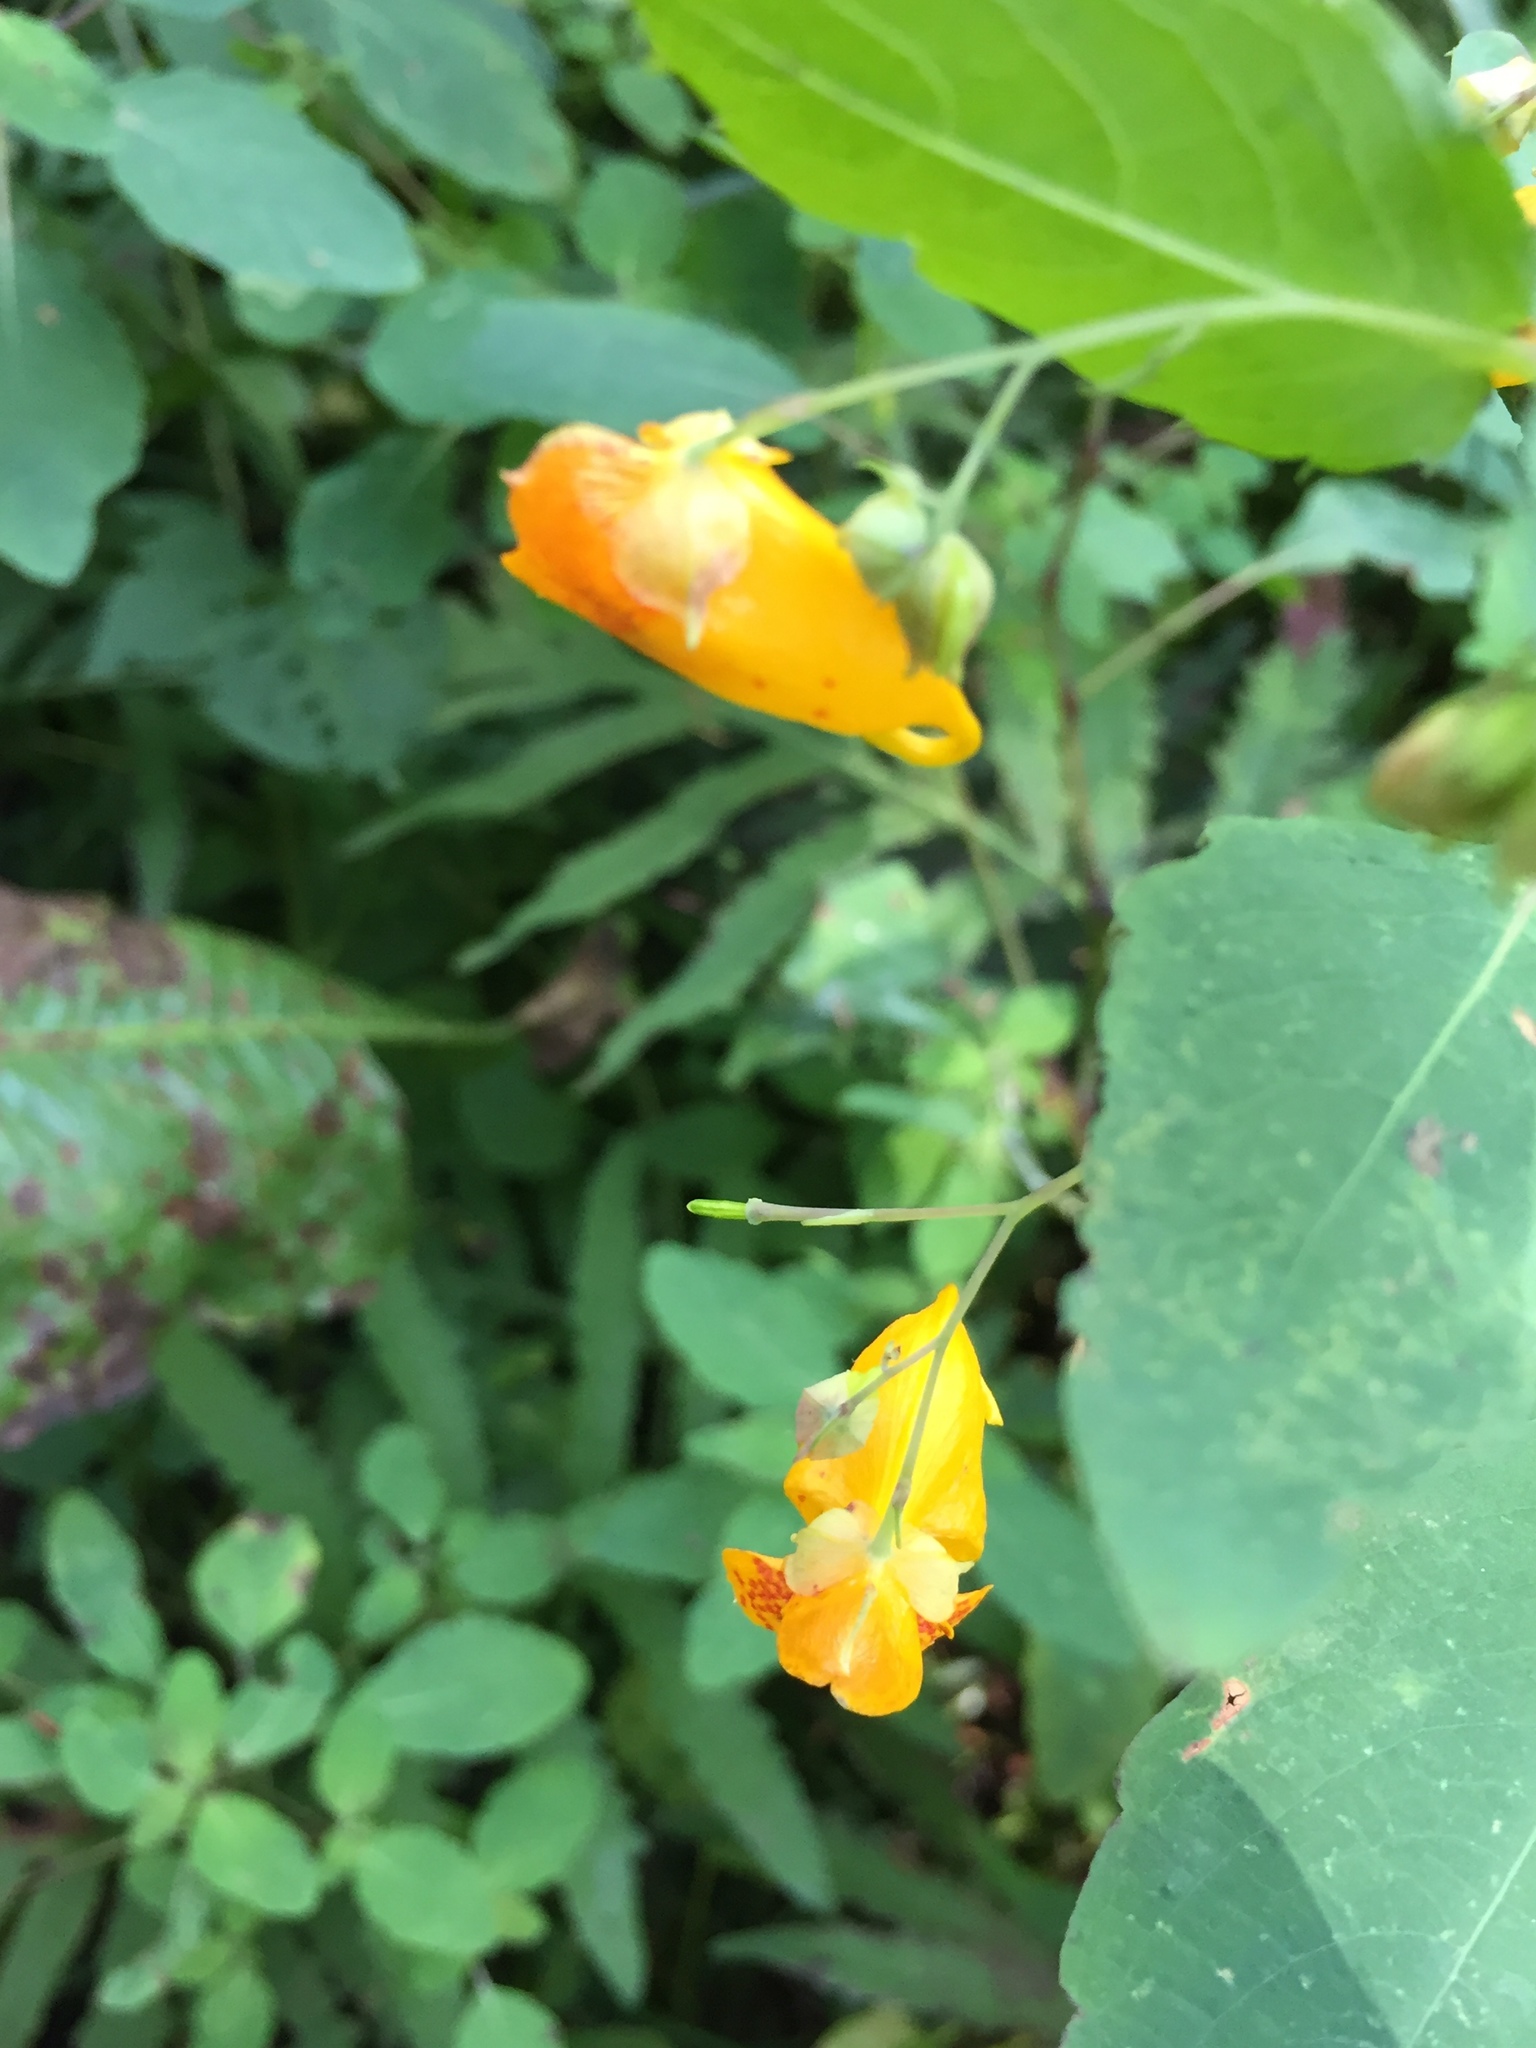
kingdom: Plantae
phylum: Tracheophyta
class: Magnoliopsida
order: Ericales
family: Balsaminaceae
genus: Impatiens
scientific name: Impatiens capensis
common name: Orange balsam
